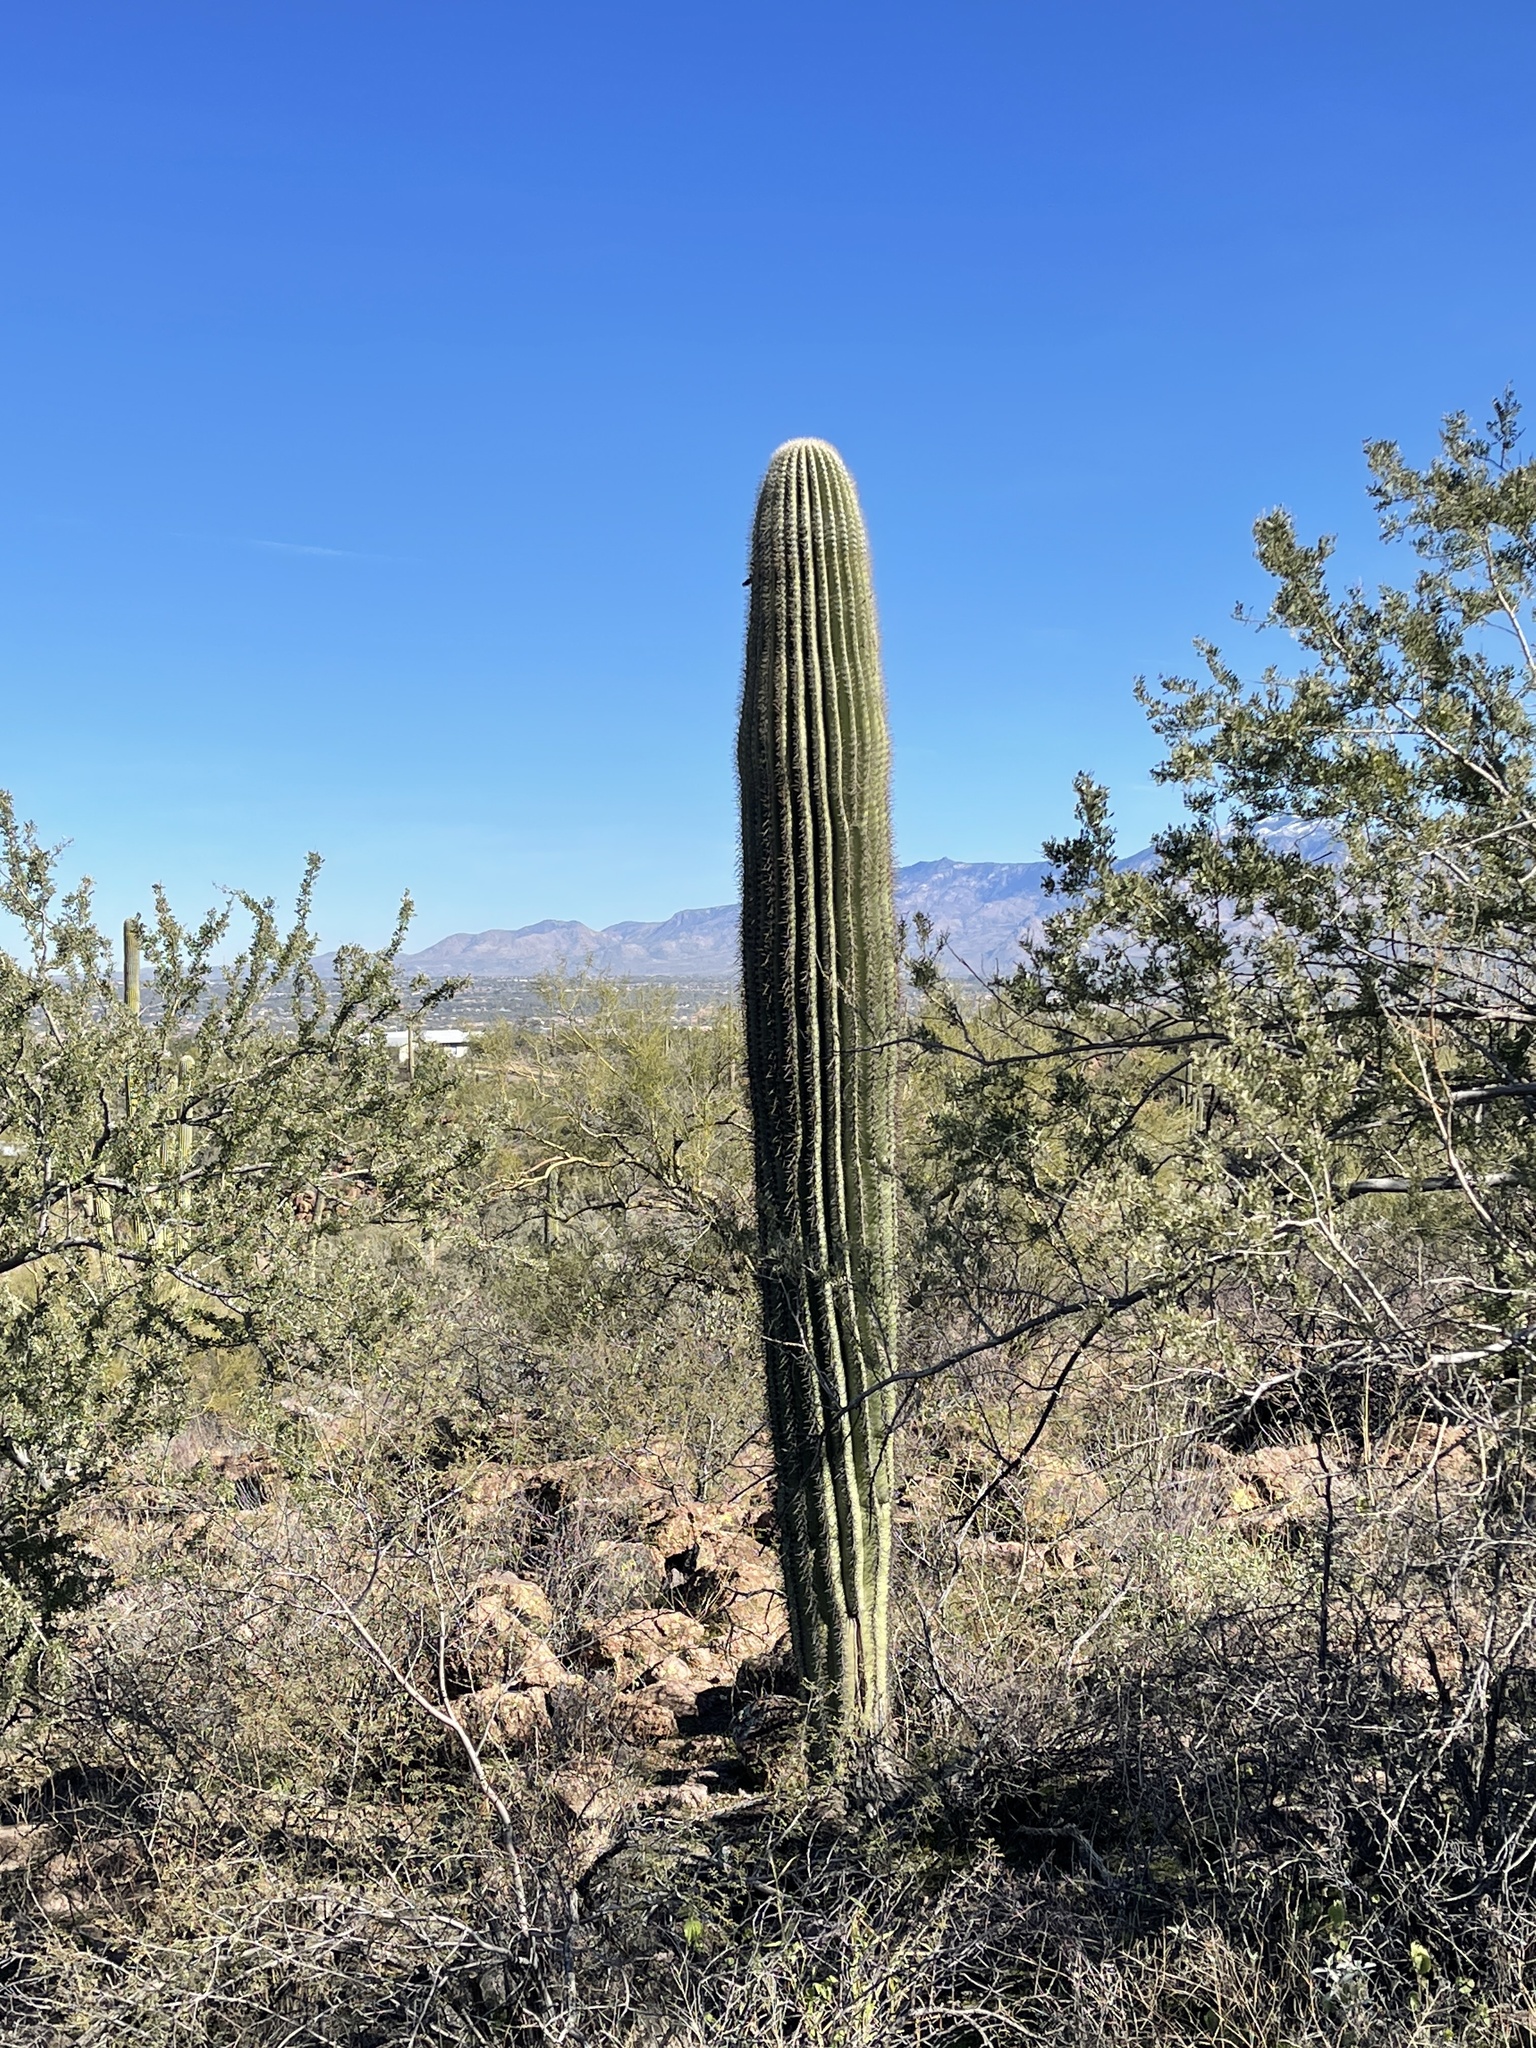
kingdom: Plantae
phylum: Tracheophyta
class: Magnoliopsida
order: Caryophyllales
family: Cactaceae
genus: Carnegiea
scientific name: Carnegiea gigantea
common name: Saguaro
